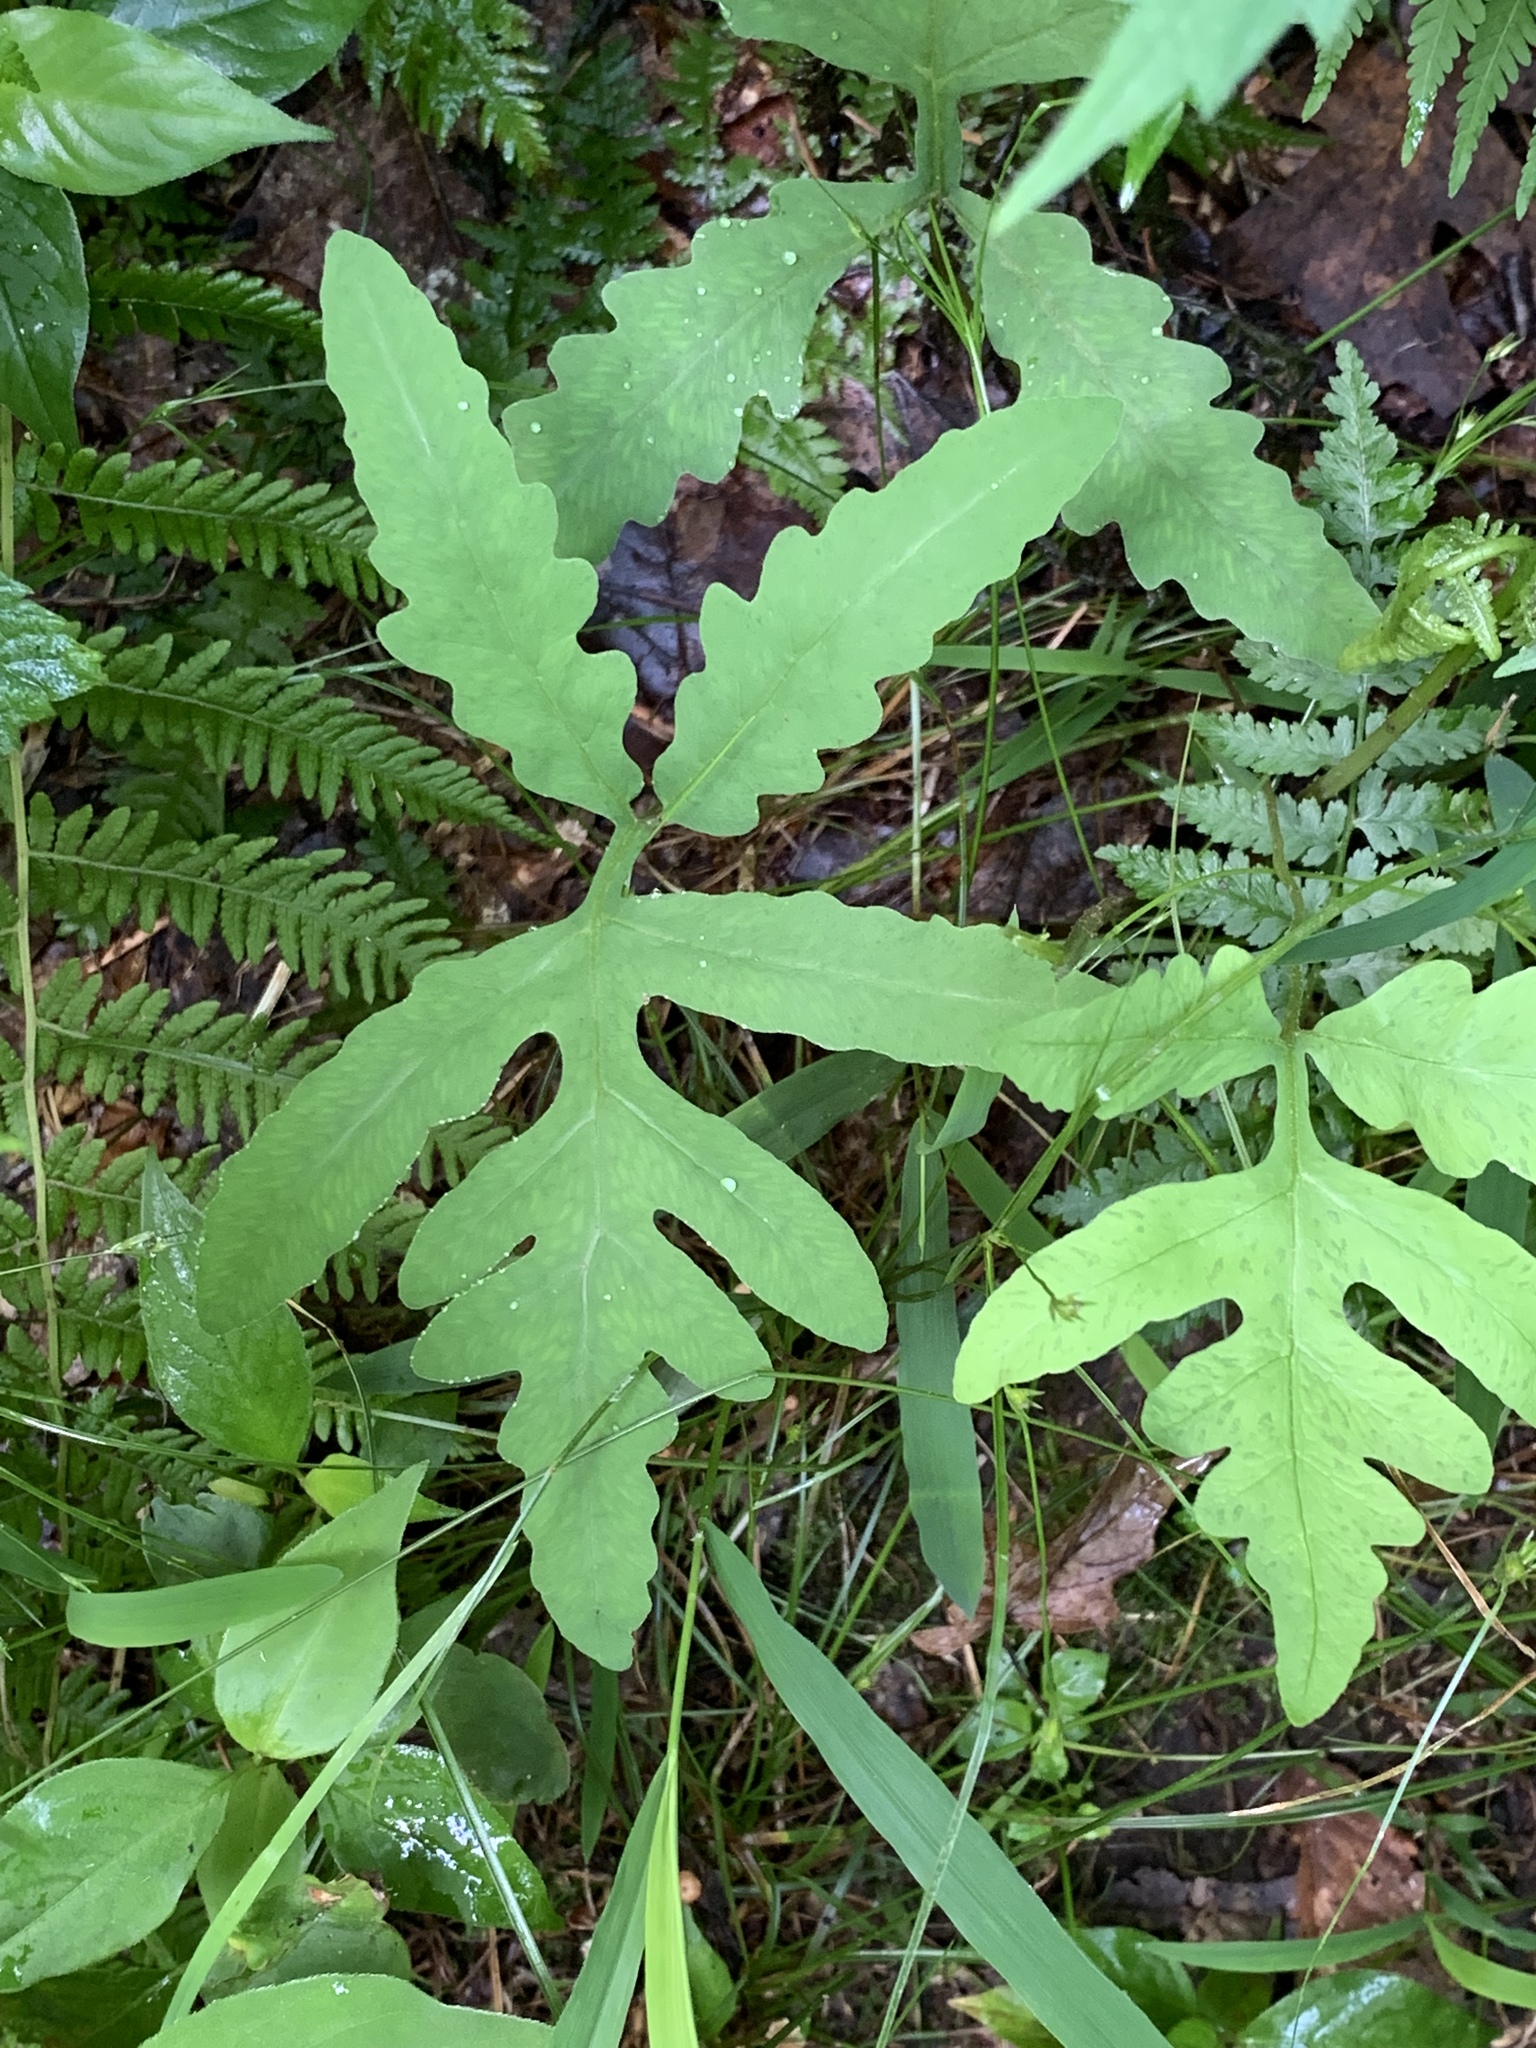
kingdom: Plantae
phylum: Tracheophyta
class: Polypodiopsida
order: Polypodiales
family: Onocleaceae
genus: Onoclea
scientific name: Onoclea sensibilis
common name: Sensitive fern
